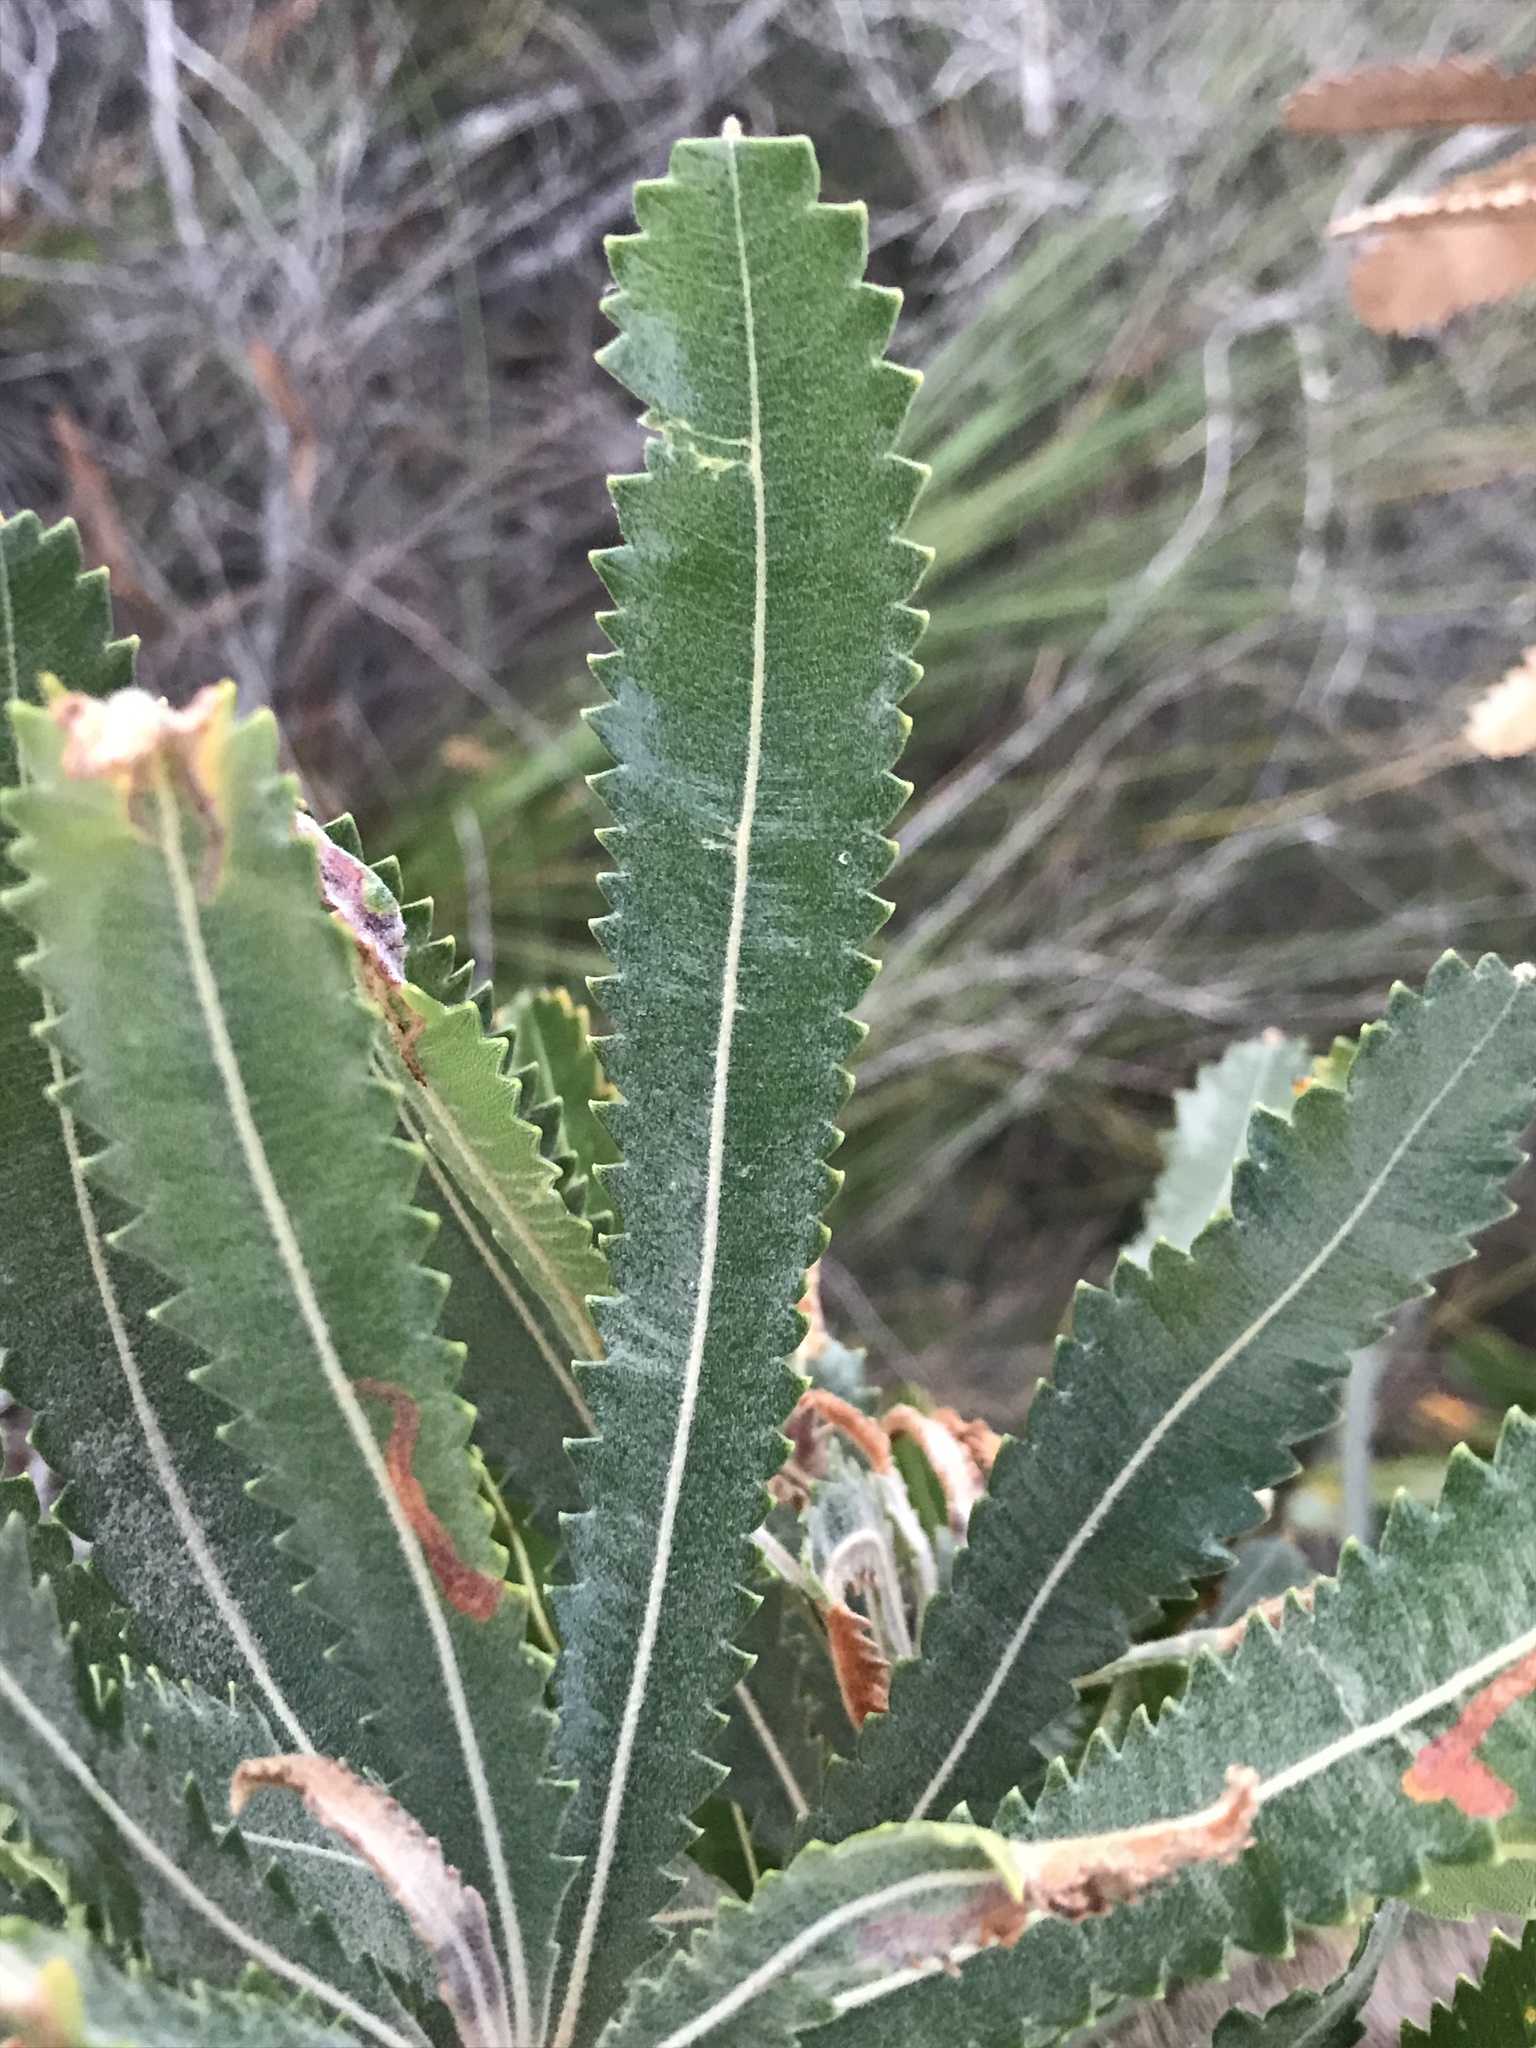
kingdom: Plantae
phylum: Tracheophyta
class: Magnoliopsida
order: Proteales
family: Proteaceae
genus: Banksia
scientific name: Banksia aemula
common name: Wallum banksia
